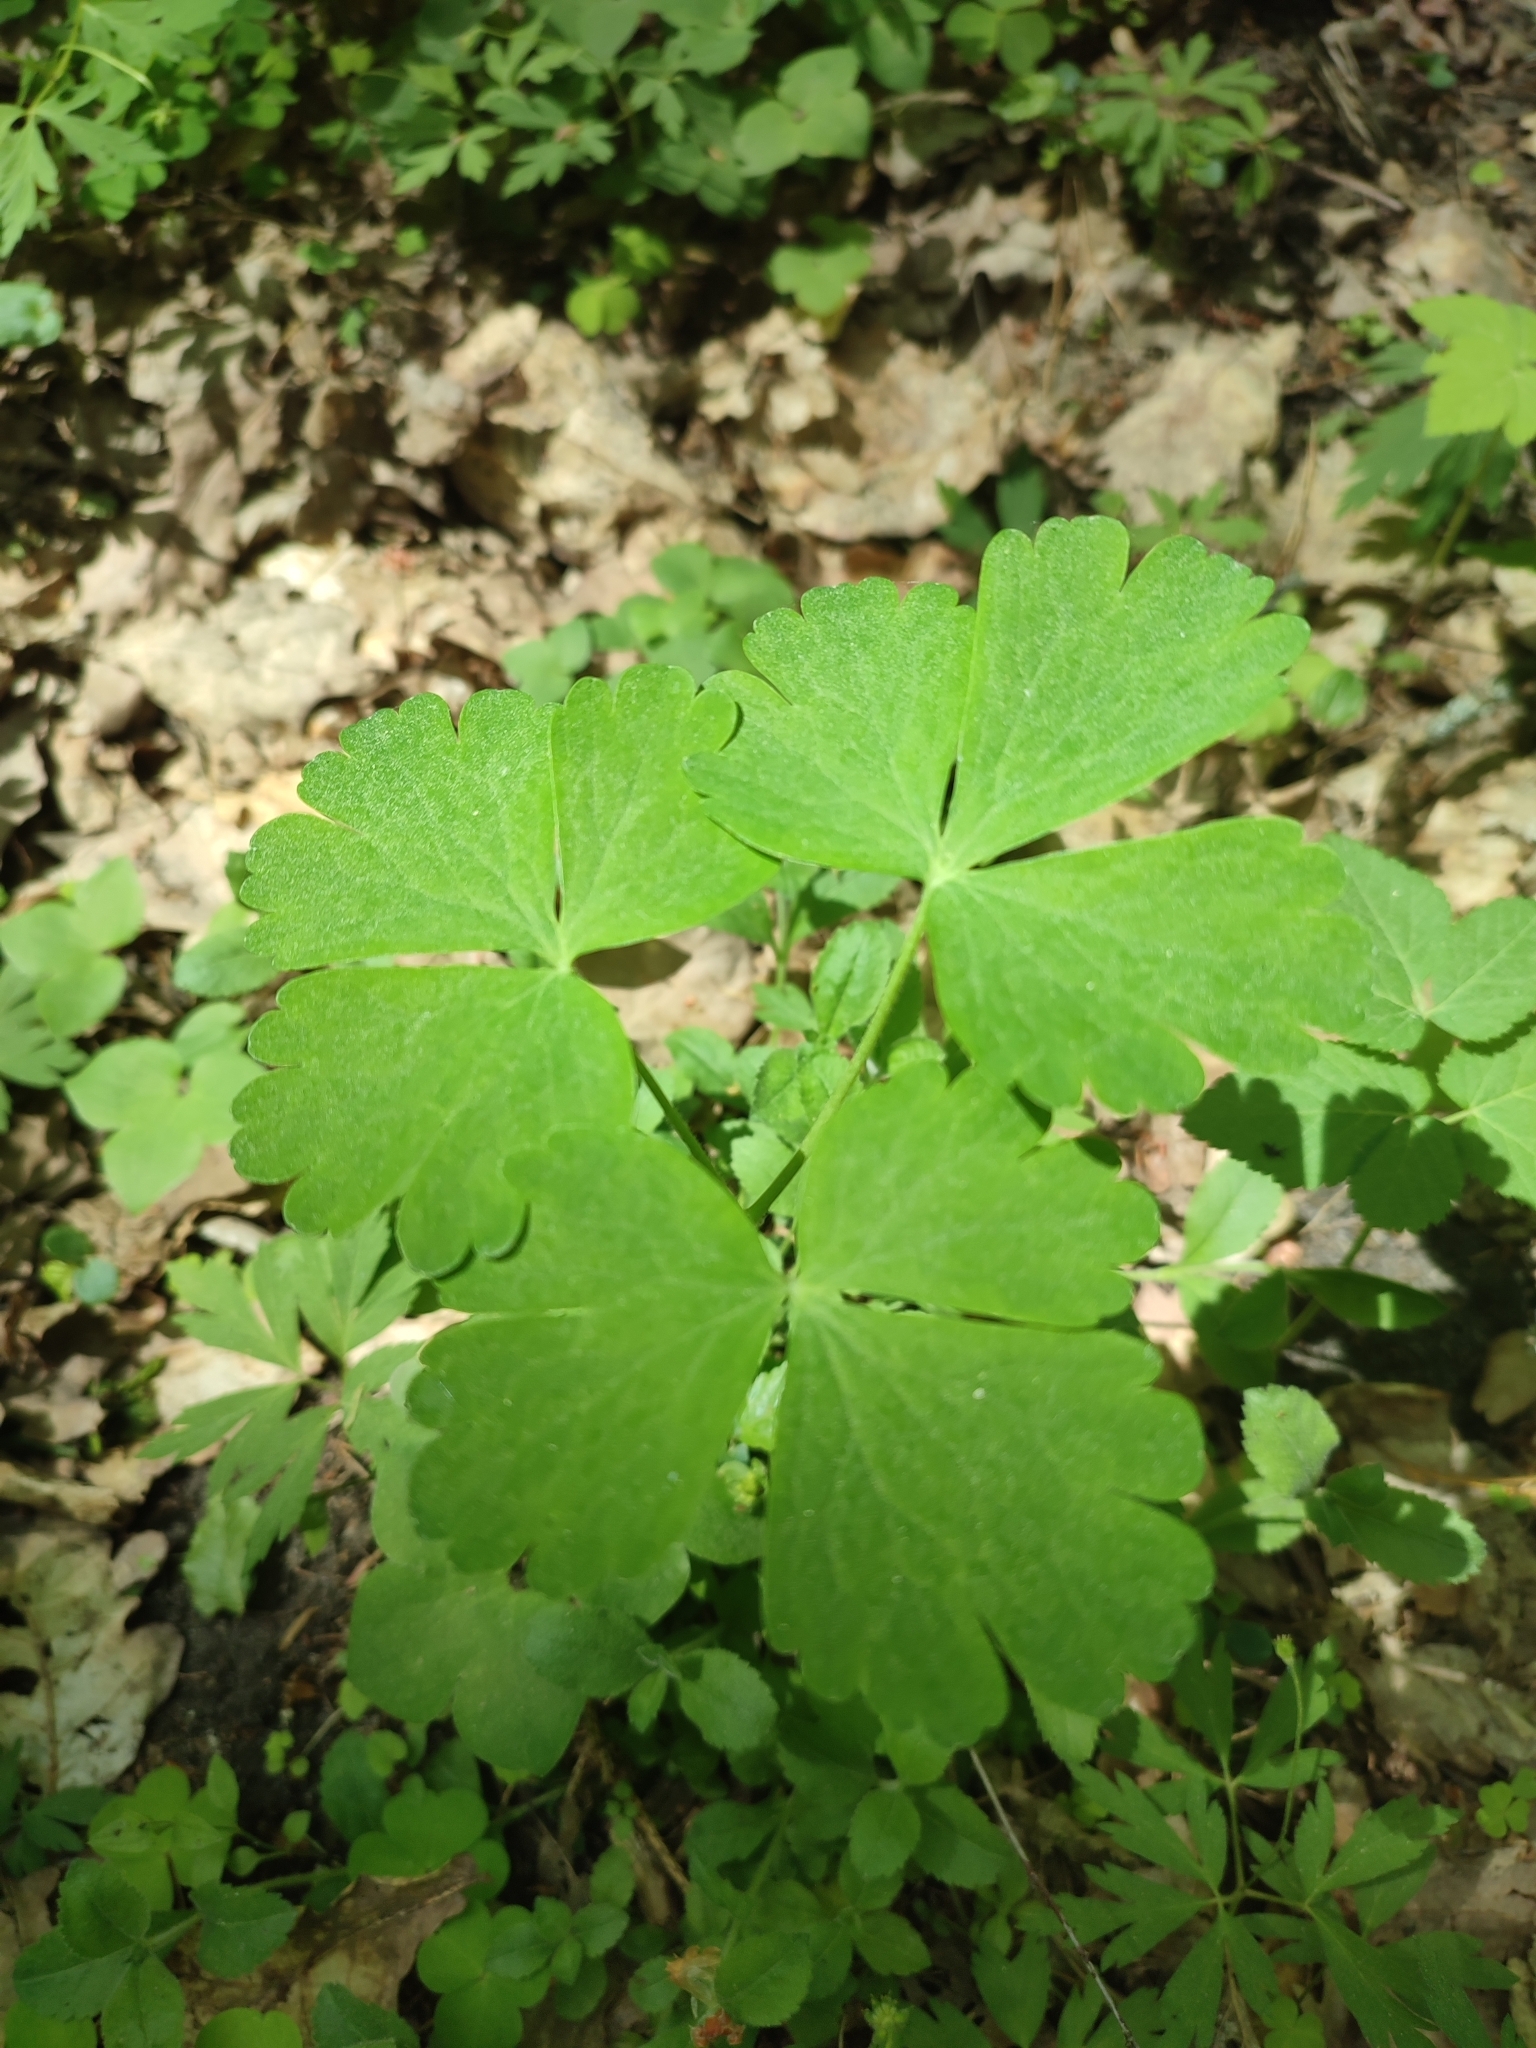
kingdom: Plantae
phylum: Tracheophyta
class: Magnoliopsida
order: Ranunculales
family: Ranunculaceae
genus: Aquilegia
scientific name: Aquilegia vulgaris
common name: Columbine
